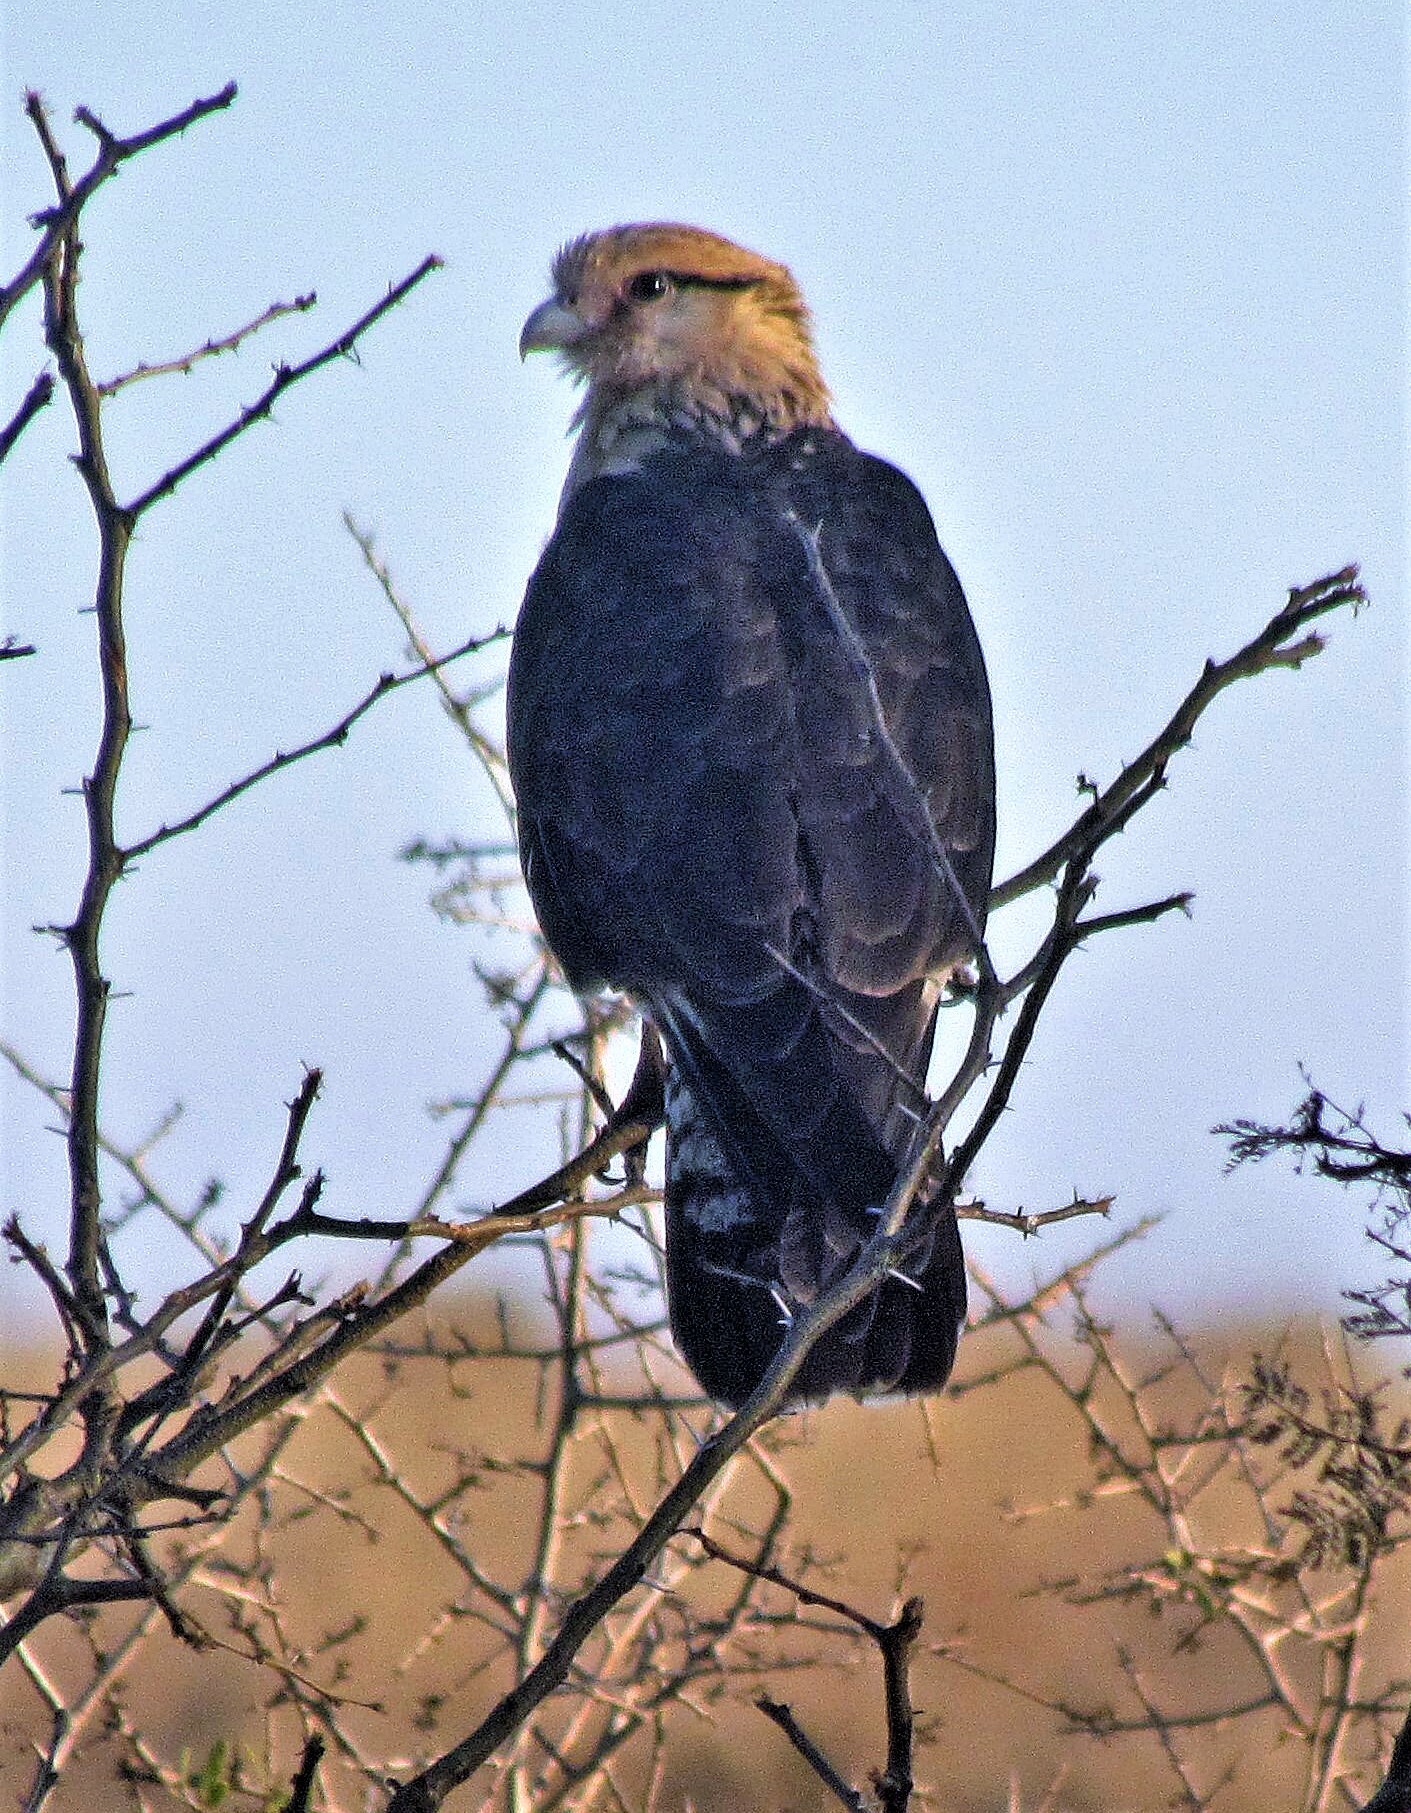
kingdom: Animalia
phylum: Chordata
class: Aves
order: Falconiformes
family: Falconidae
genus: Daptrius
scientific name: Daptrius
